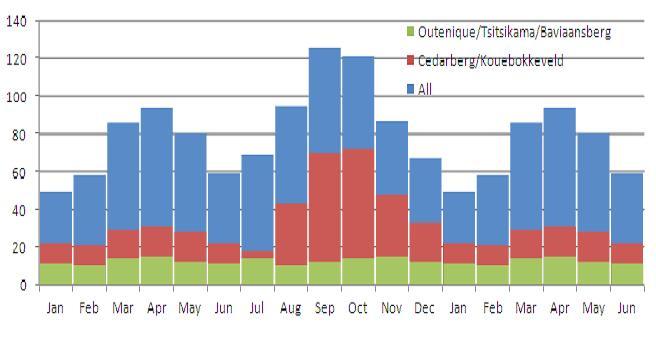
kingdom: Animalia
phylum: Arthropoda
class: Insecta
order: Coleoptera
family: Chrysomelidae
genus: Pseudorupilia
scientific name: Pseudorupilia
